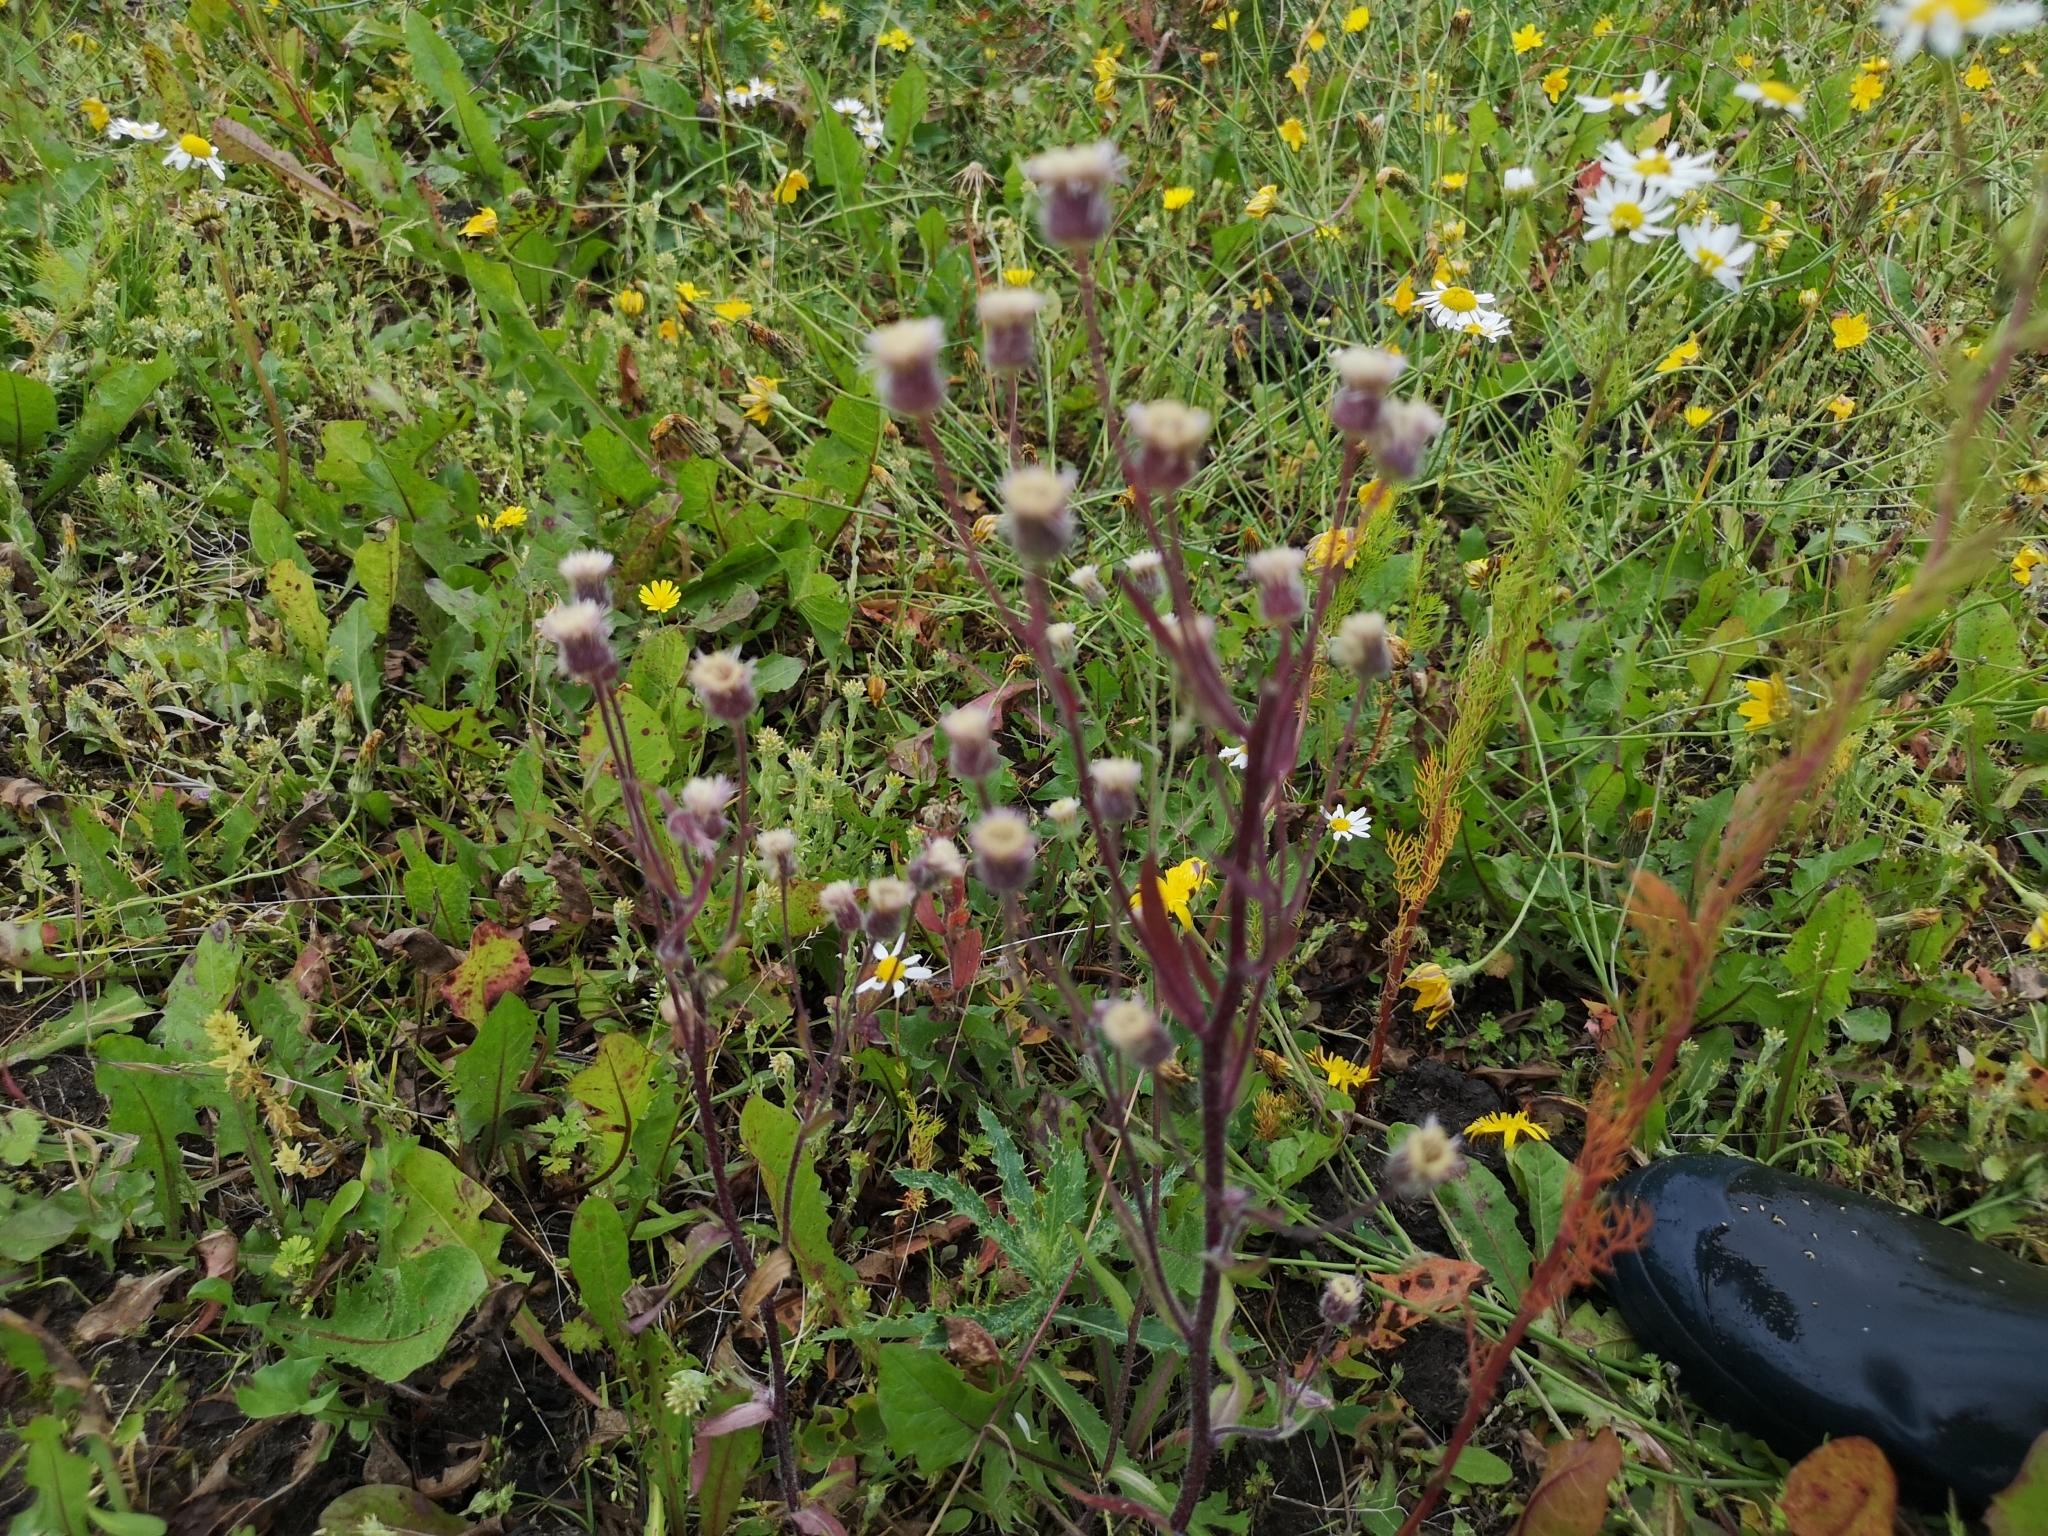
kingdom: Plantae
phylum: Tracheophyta
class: Magnoliopsida
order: Asterales
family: Asteraceae
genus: Erigeron
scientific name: Erigeron acris
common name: Blue fleabane
